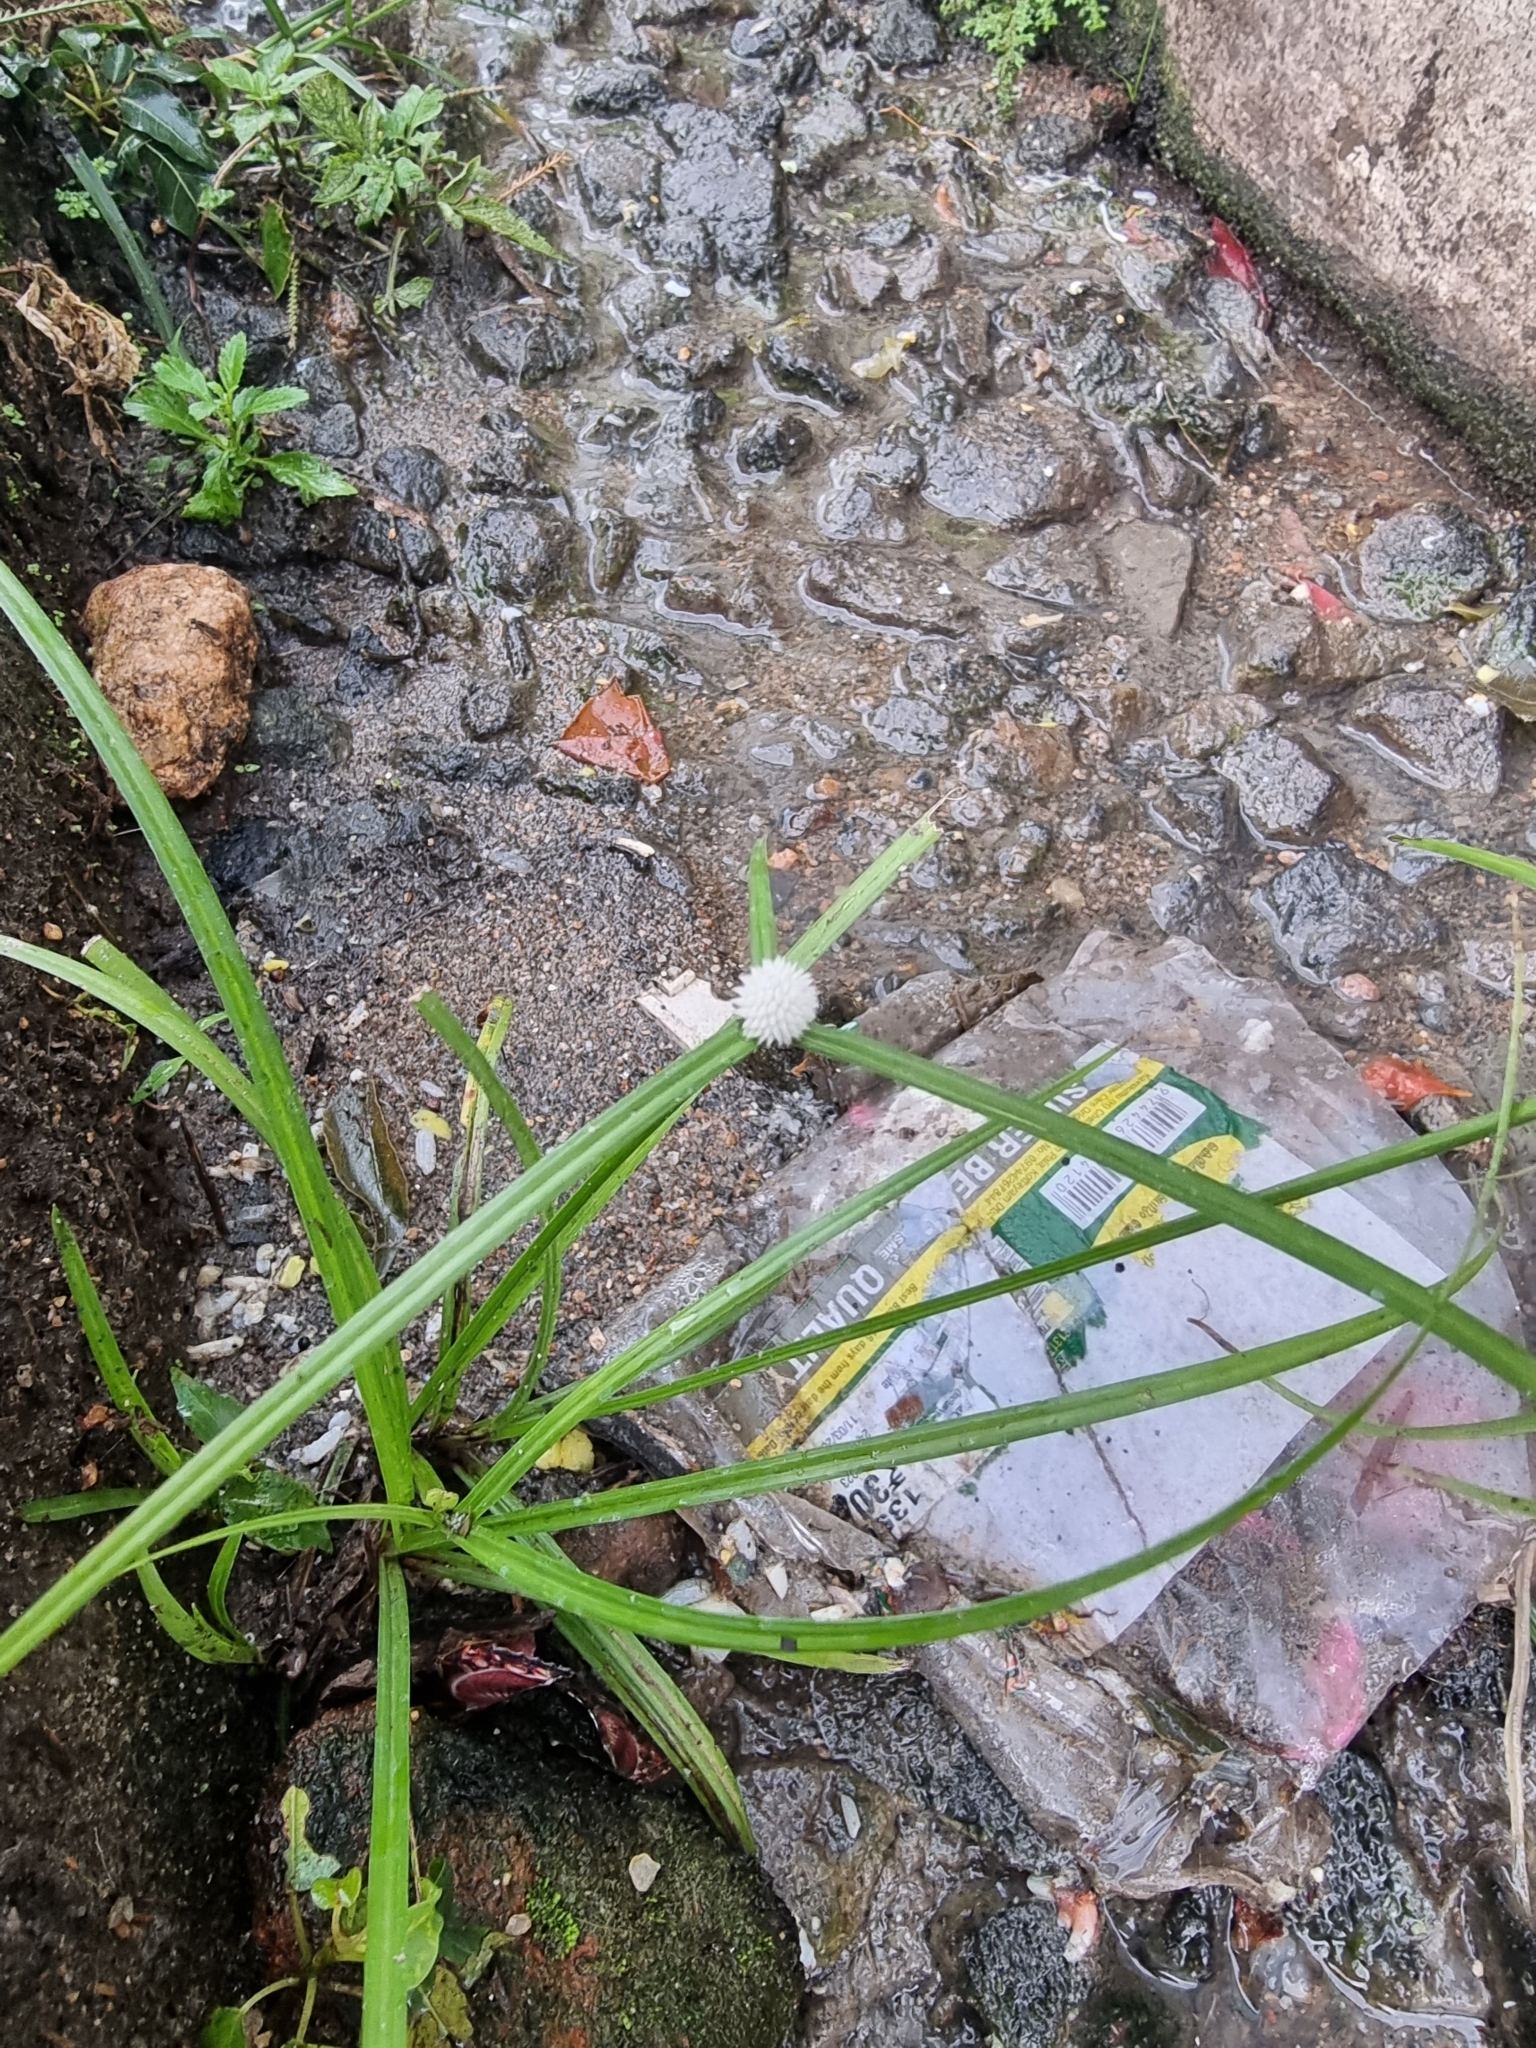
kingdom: Plantae
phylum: Tracheophyta
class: Liliopsida
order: Poales
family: Cyperaceae
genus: Cyperus
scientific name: Cyperus mindorensis
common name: Flatsedge
